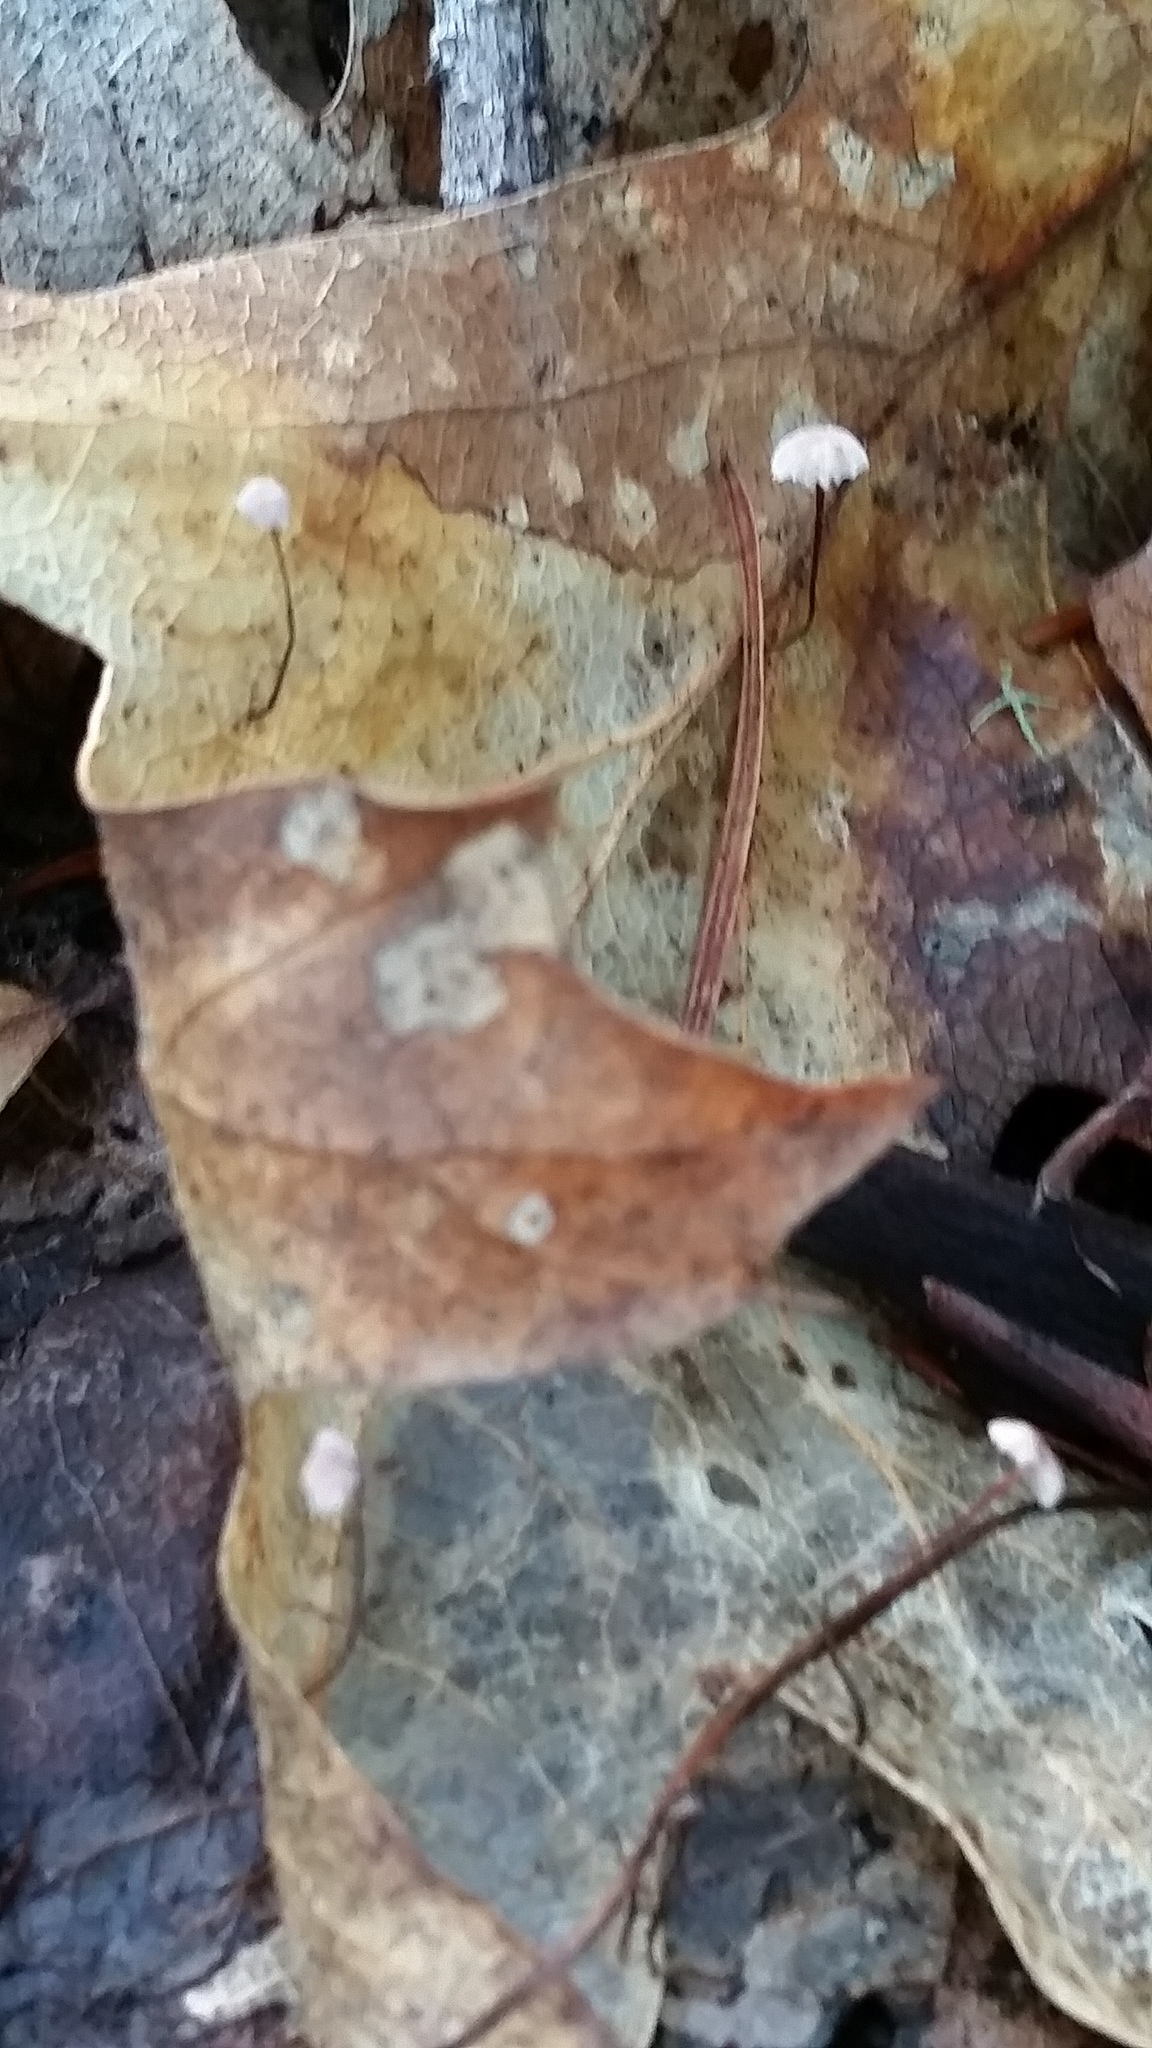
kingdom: Fungi
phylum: Basidiomycota
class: Agaricomycetes
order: Agaricales
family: Omphalotaceae
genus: Collybiopsis
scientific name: Collybiopsis quercophila
